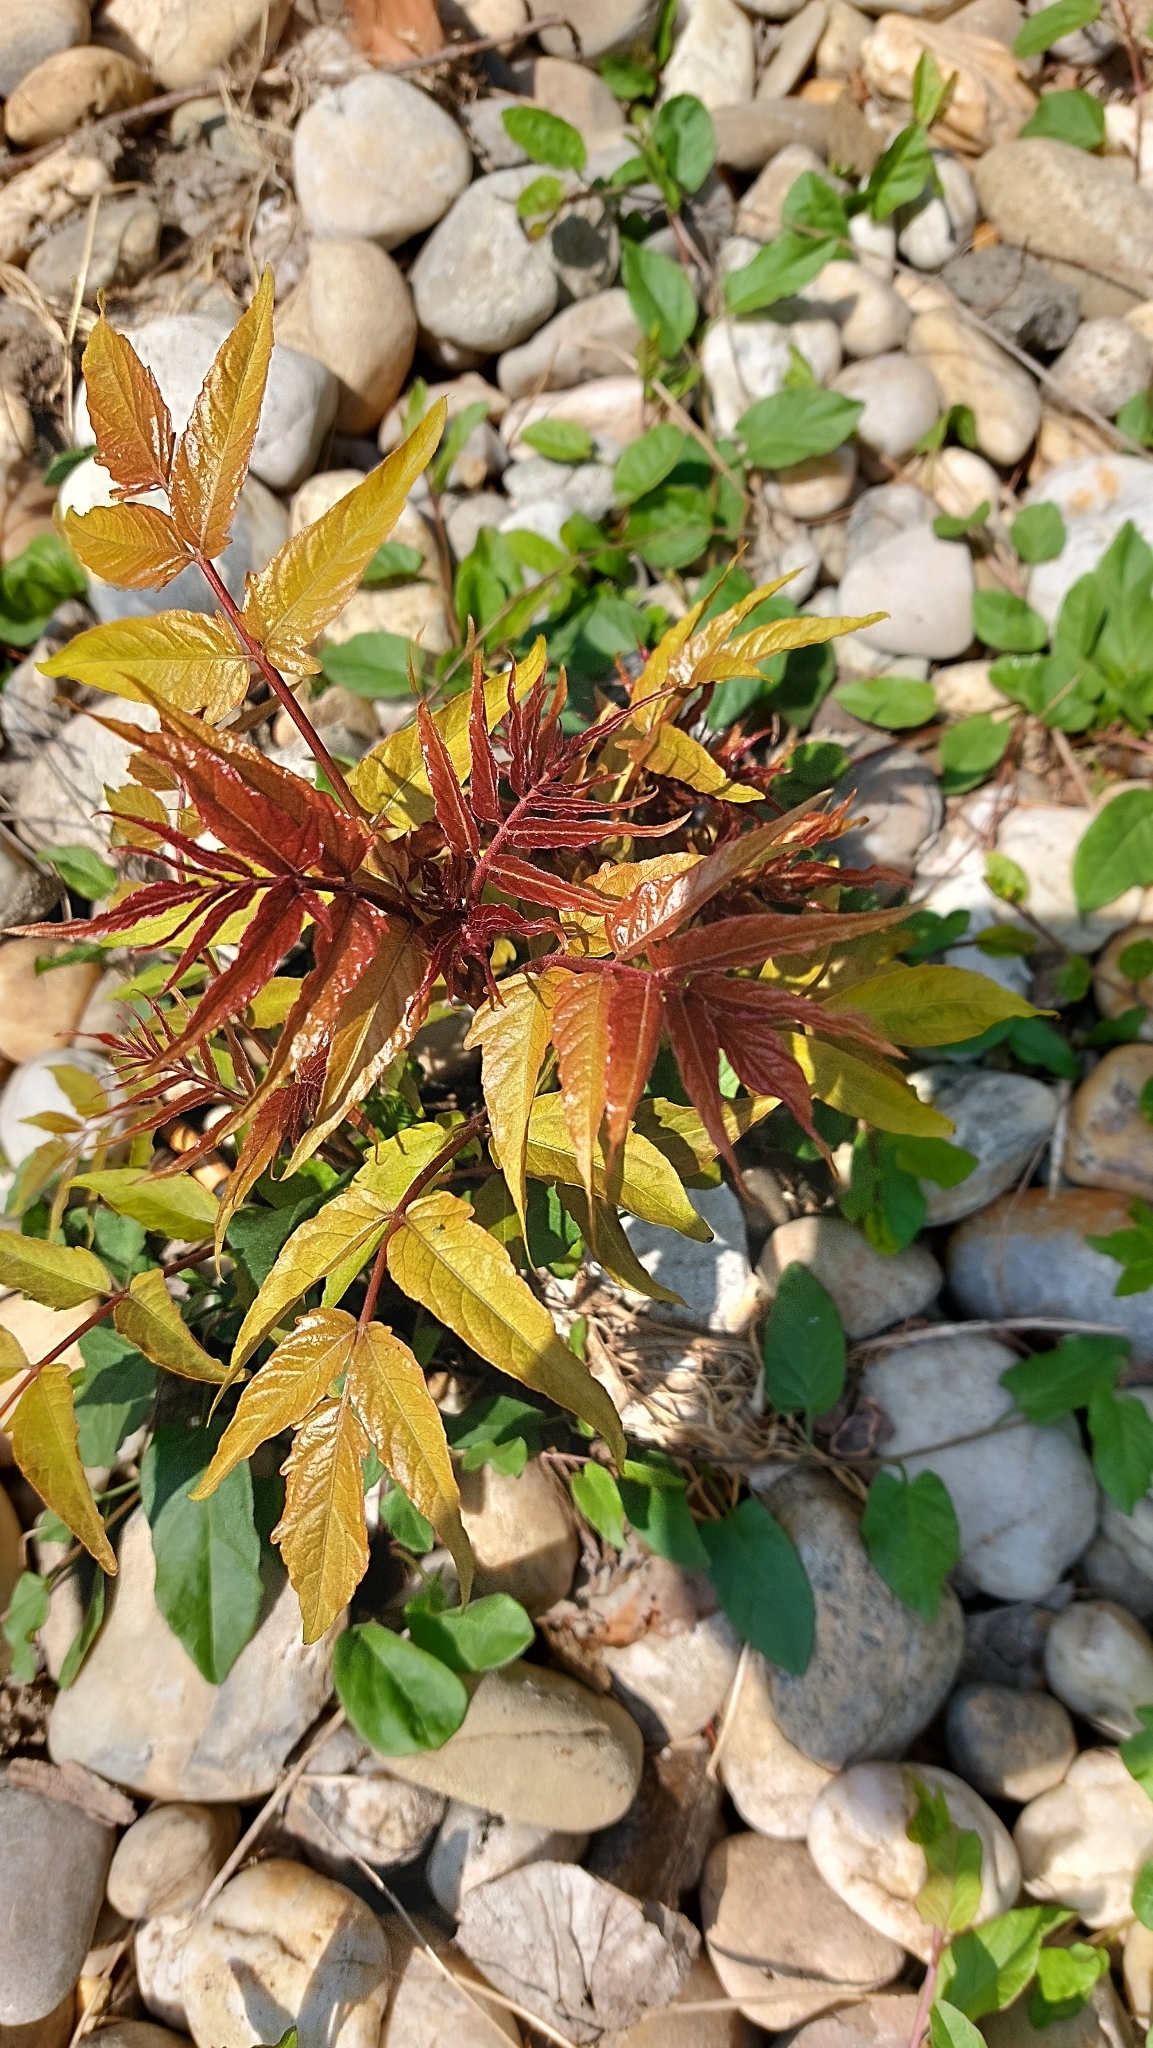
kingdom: Plantae
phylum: Tracheophyta
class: Magnoliopsida
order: Sapindales
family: Simaroubaceae
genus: Ailanthus
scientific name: Ailanthus altissima
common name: Tree-of-heaven
